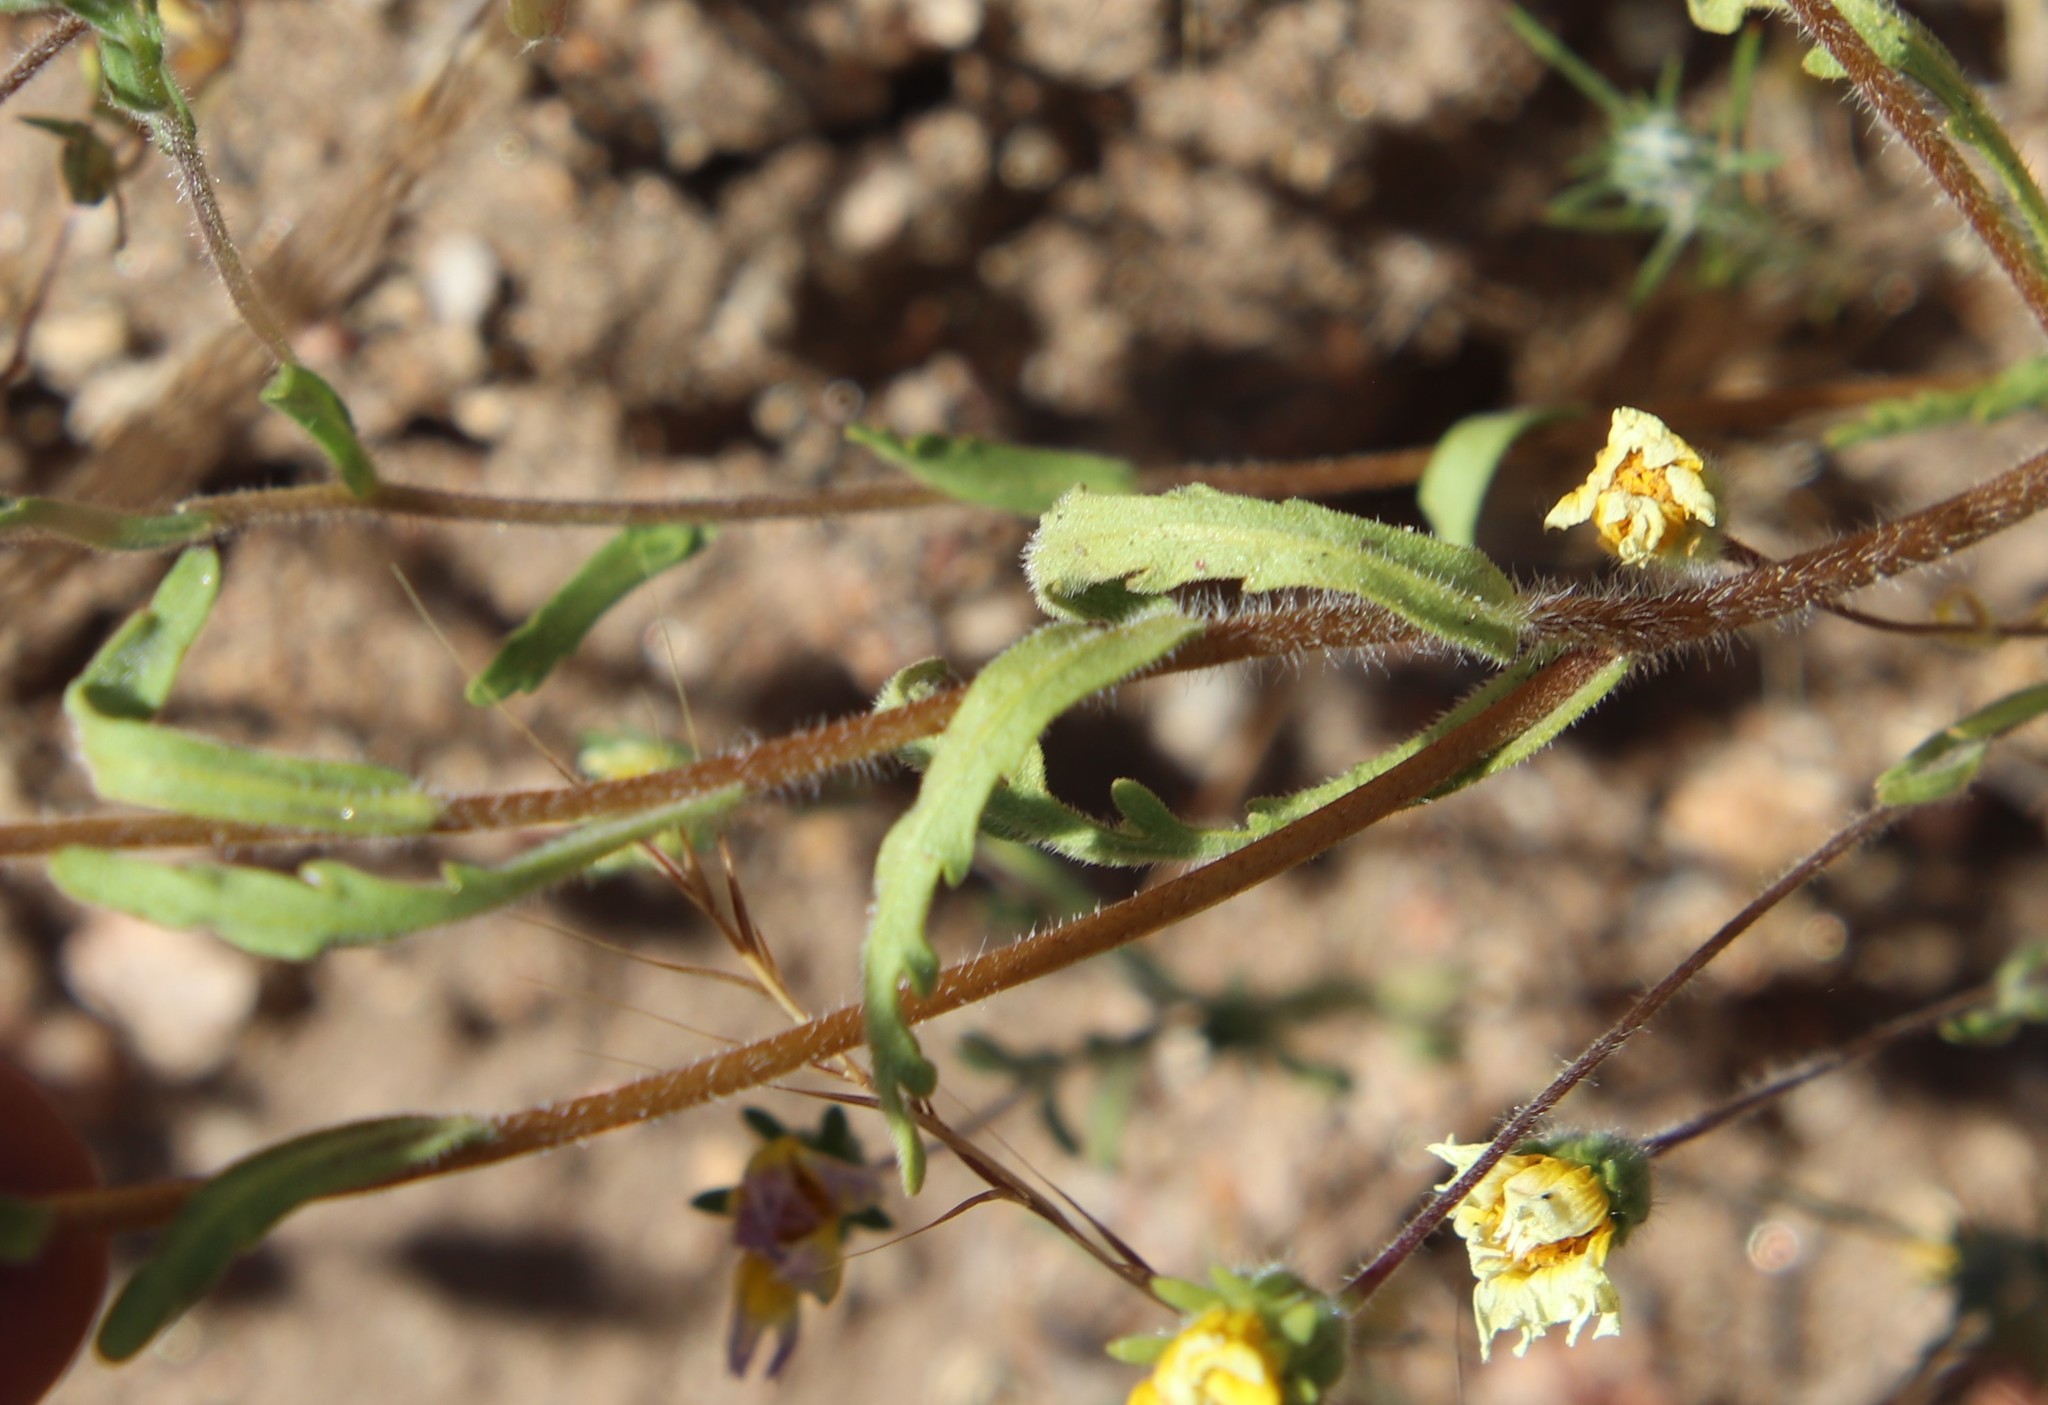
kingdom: Plantae
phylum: Tracheophyta
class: Magnoliopsida
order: Asterales
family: Asteraceae
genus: Layia
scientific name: Layia platyglossa
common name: Tidy-tips
